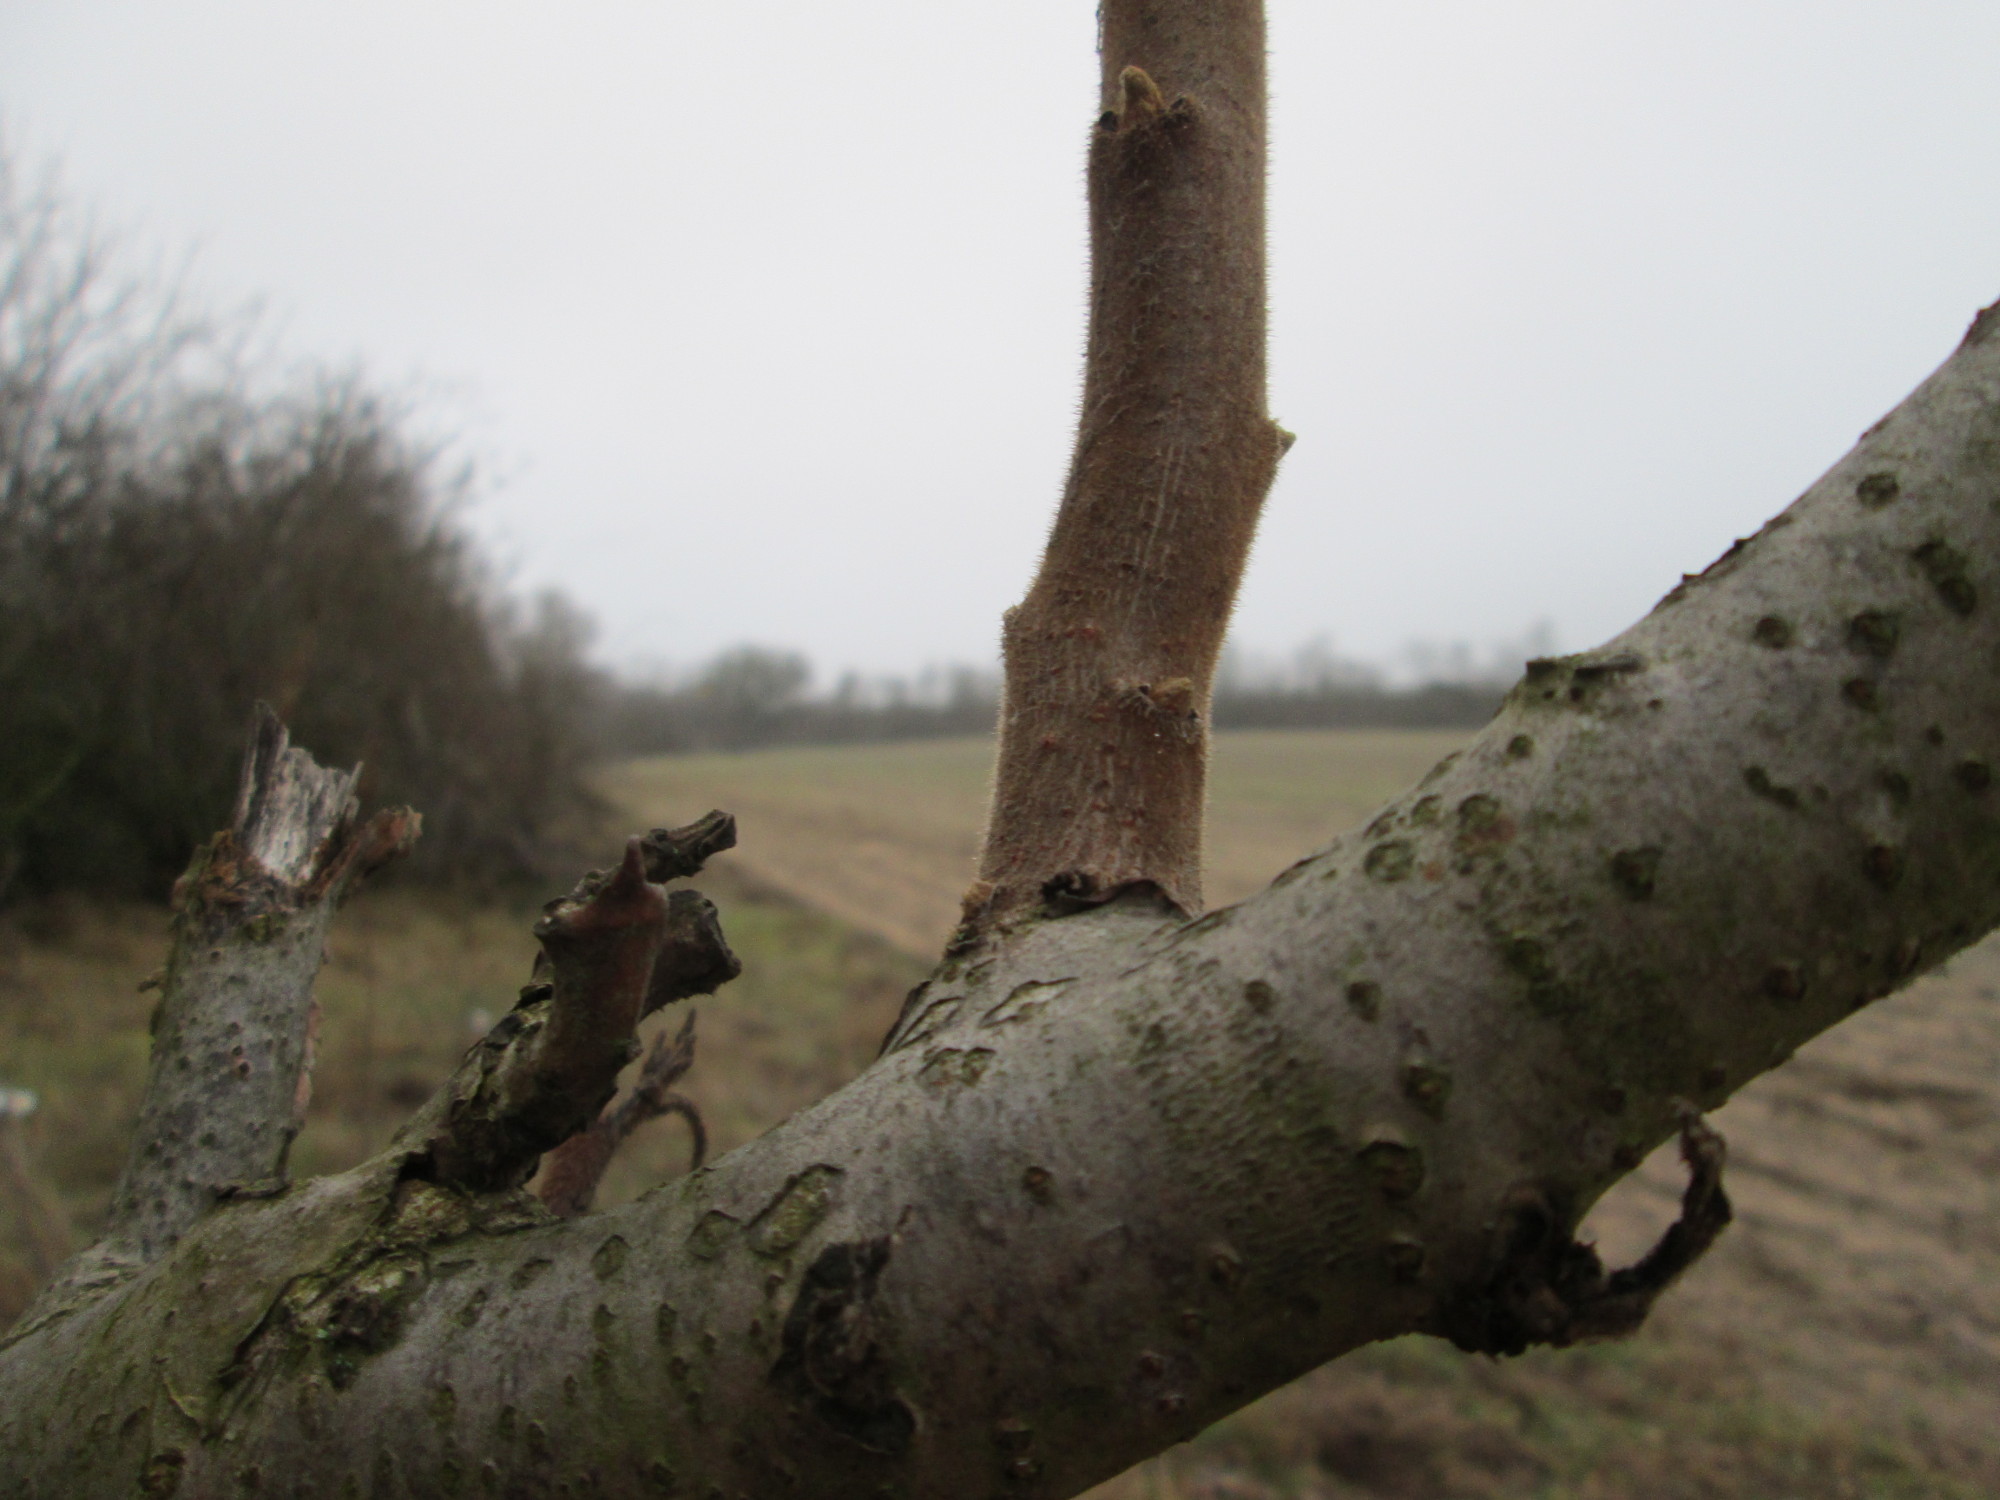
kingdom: Plantae
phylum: Tracheophyta
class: Magnoliopsida
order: Sapindales
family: Anacardiaceae
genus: Rhus
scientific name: Rhus typhina
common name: Staghorn sumac
